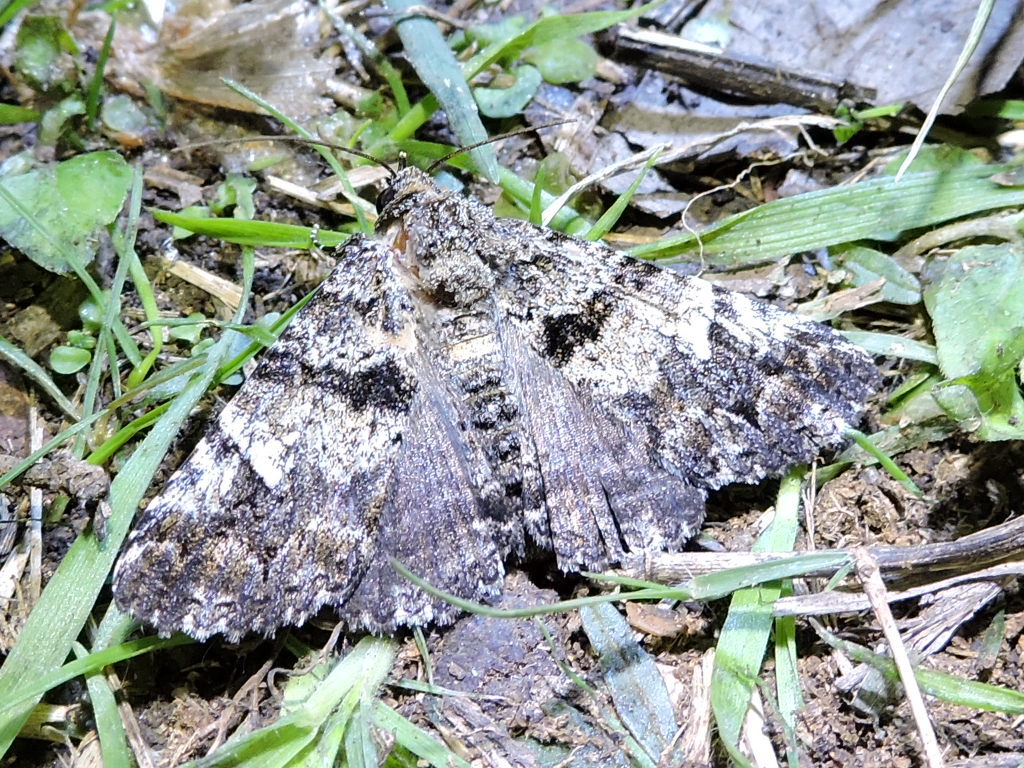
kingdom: Animalia
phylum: Arthropoda
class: Insecta
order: Lepidoptera
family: Erebidae
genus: Metria
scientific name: Metria amella
